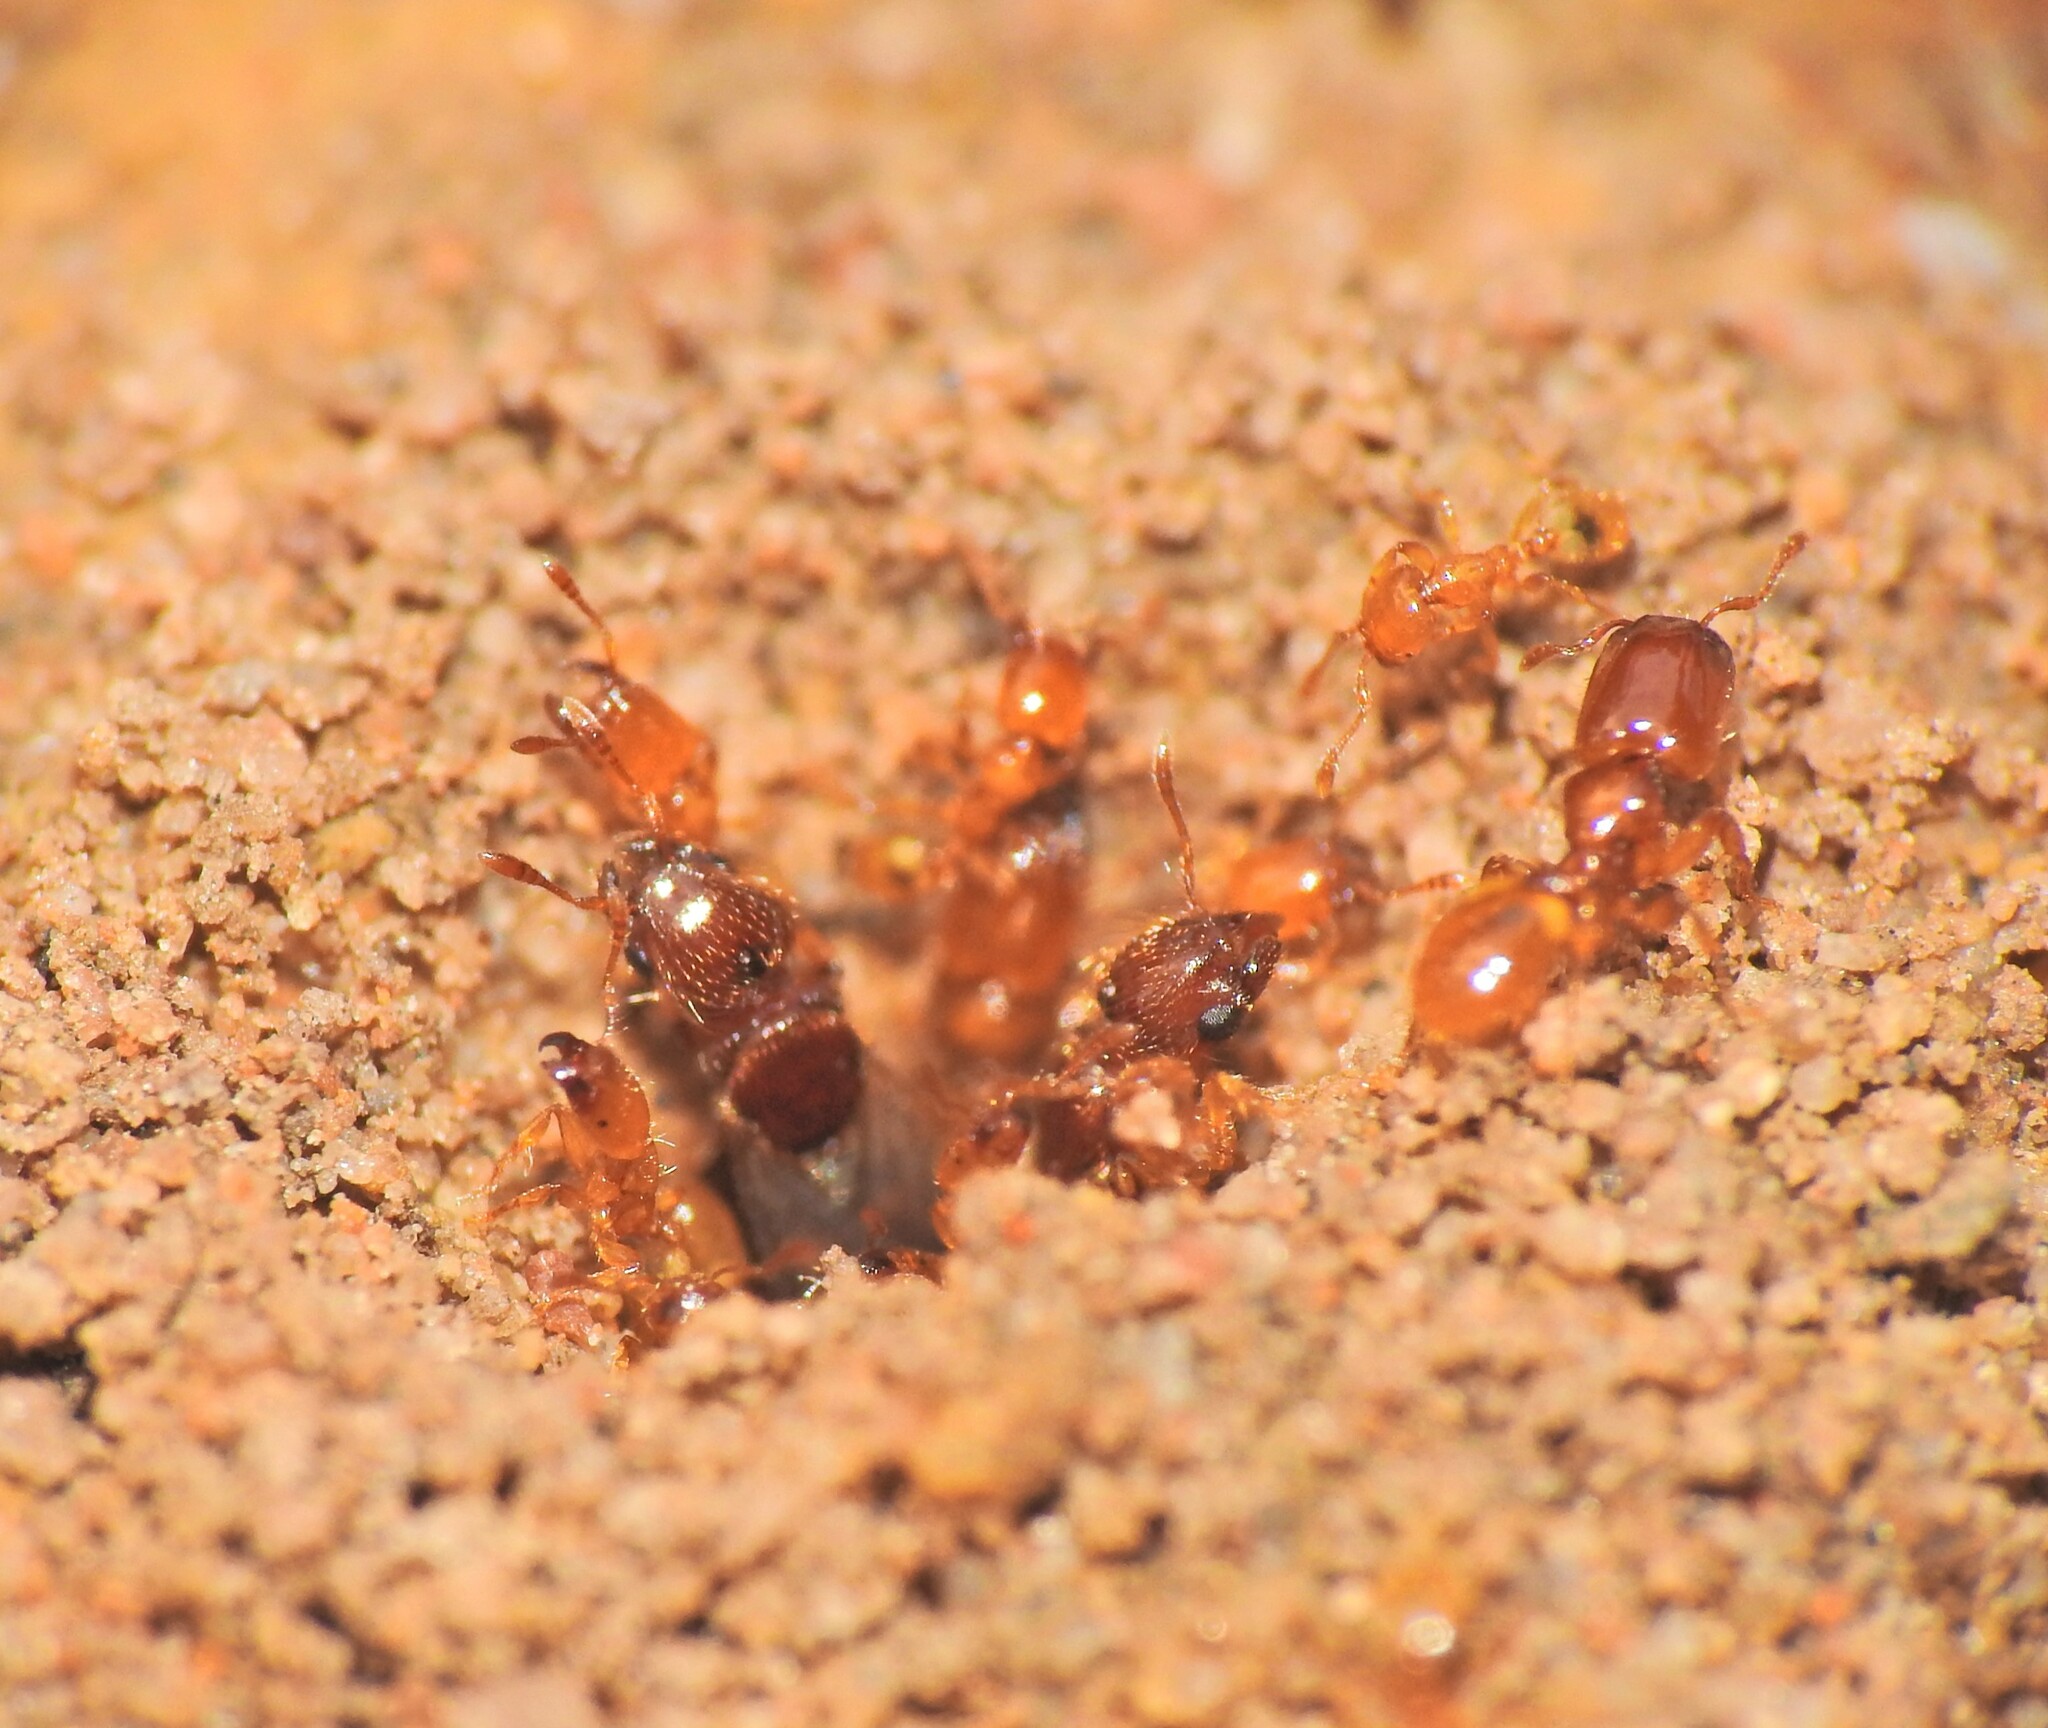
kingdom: Animalia
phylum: Arthropoda
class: Insecta
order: Hymenoptera
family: Formicidae
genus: Pheidole
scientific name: Pheidole
